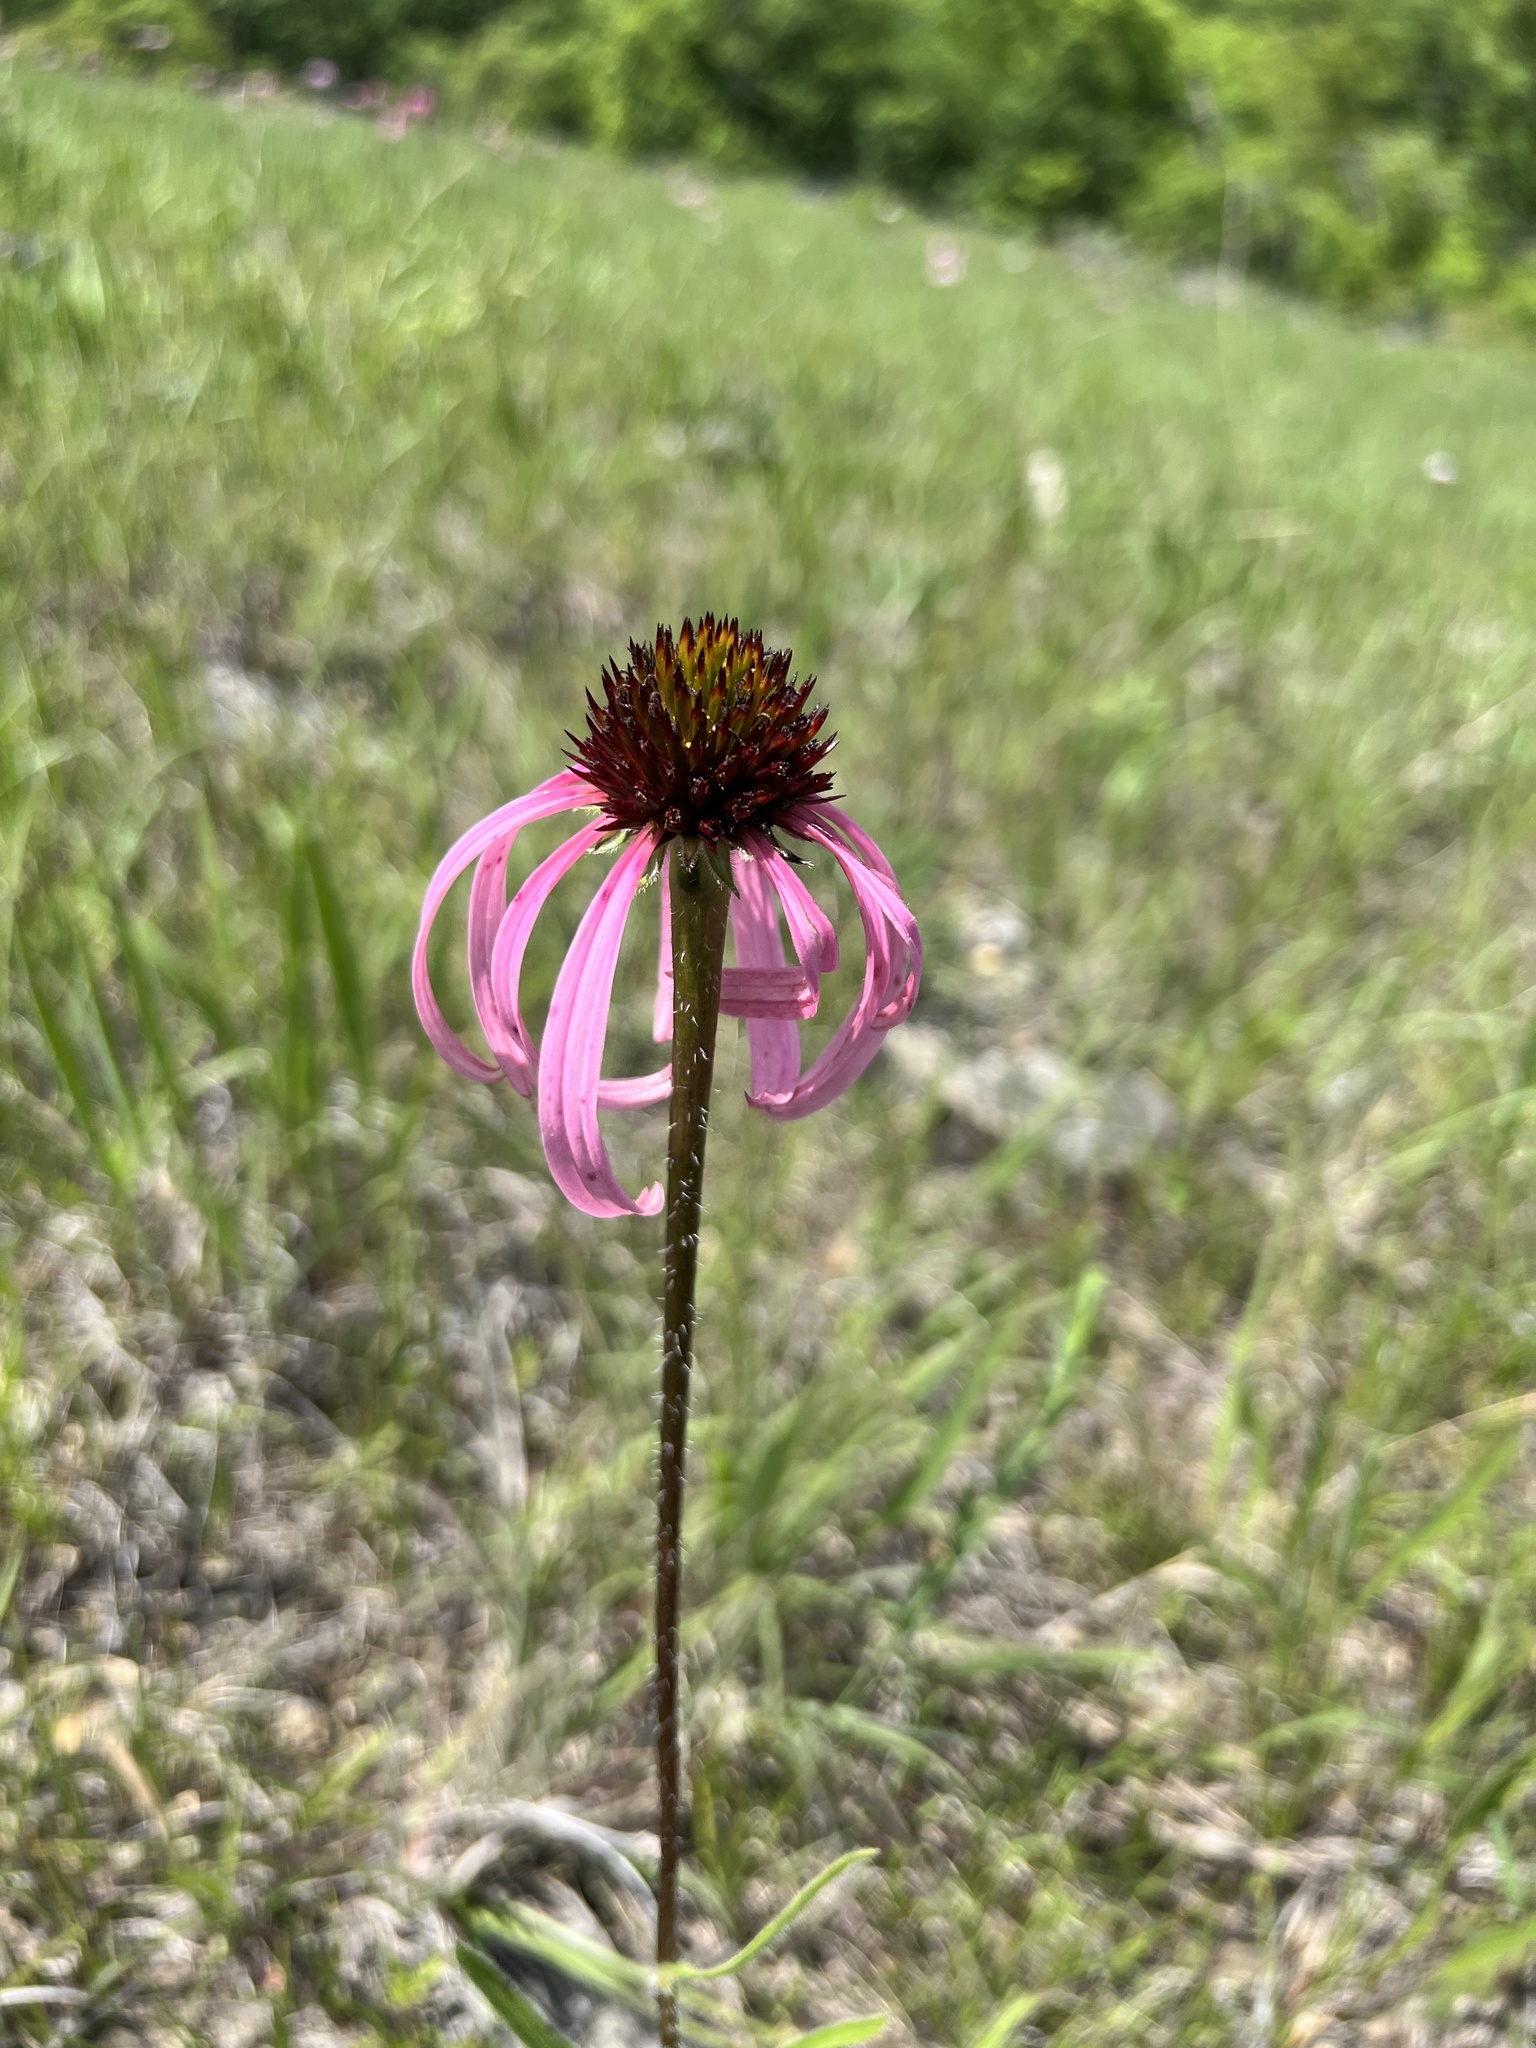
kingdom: Plantae
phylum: Tracheophyta
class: Magnoliopsida
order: Asterales
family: Asteraceae
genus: Echinacea
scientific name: Echinacea simulata
